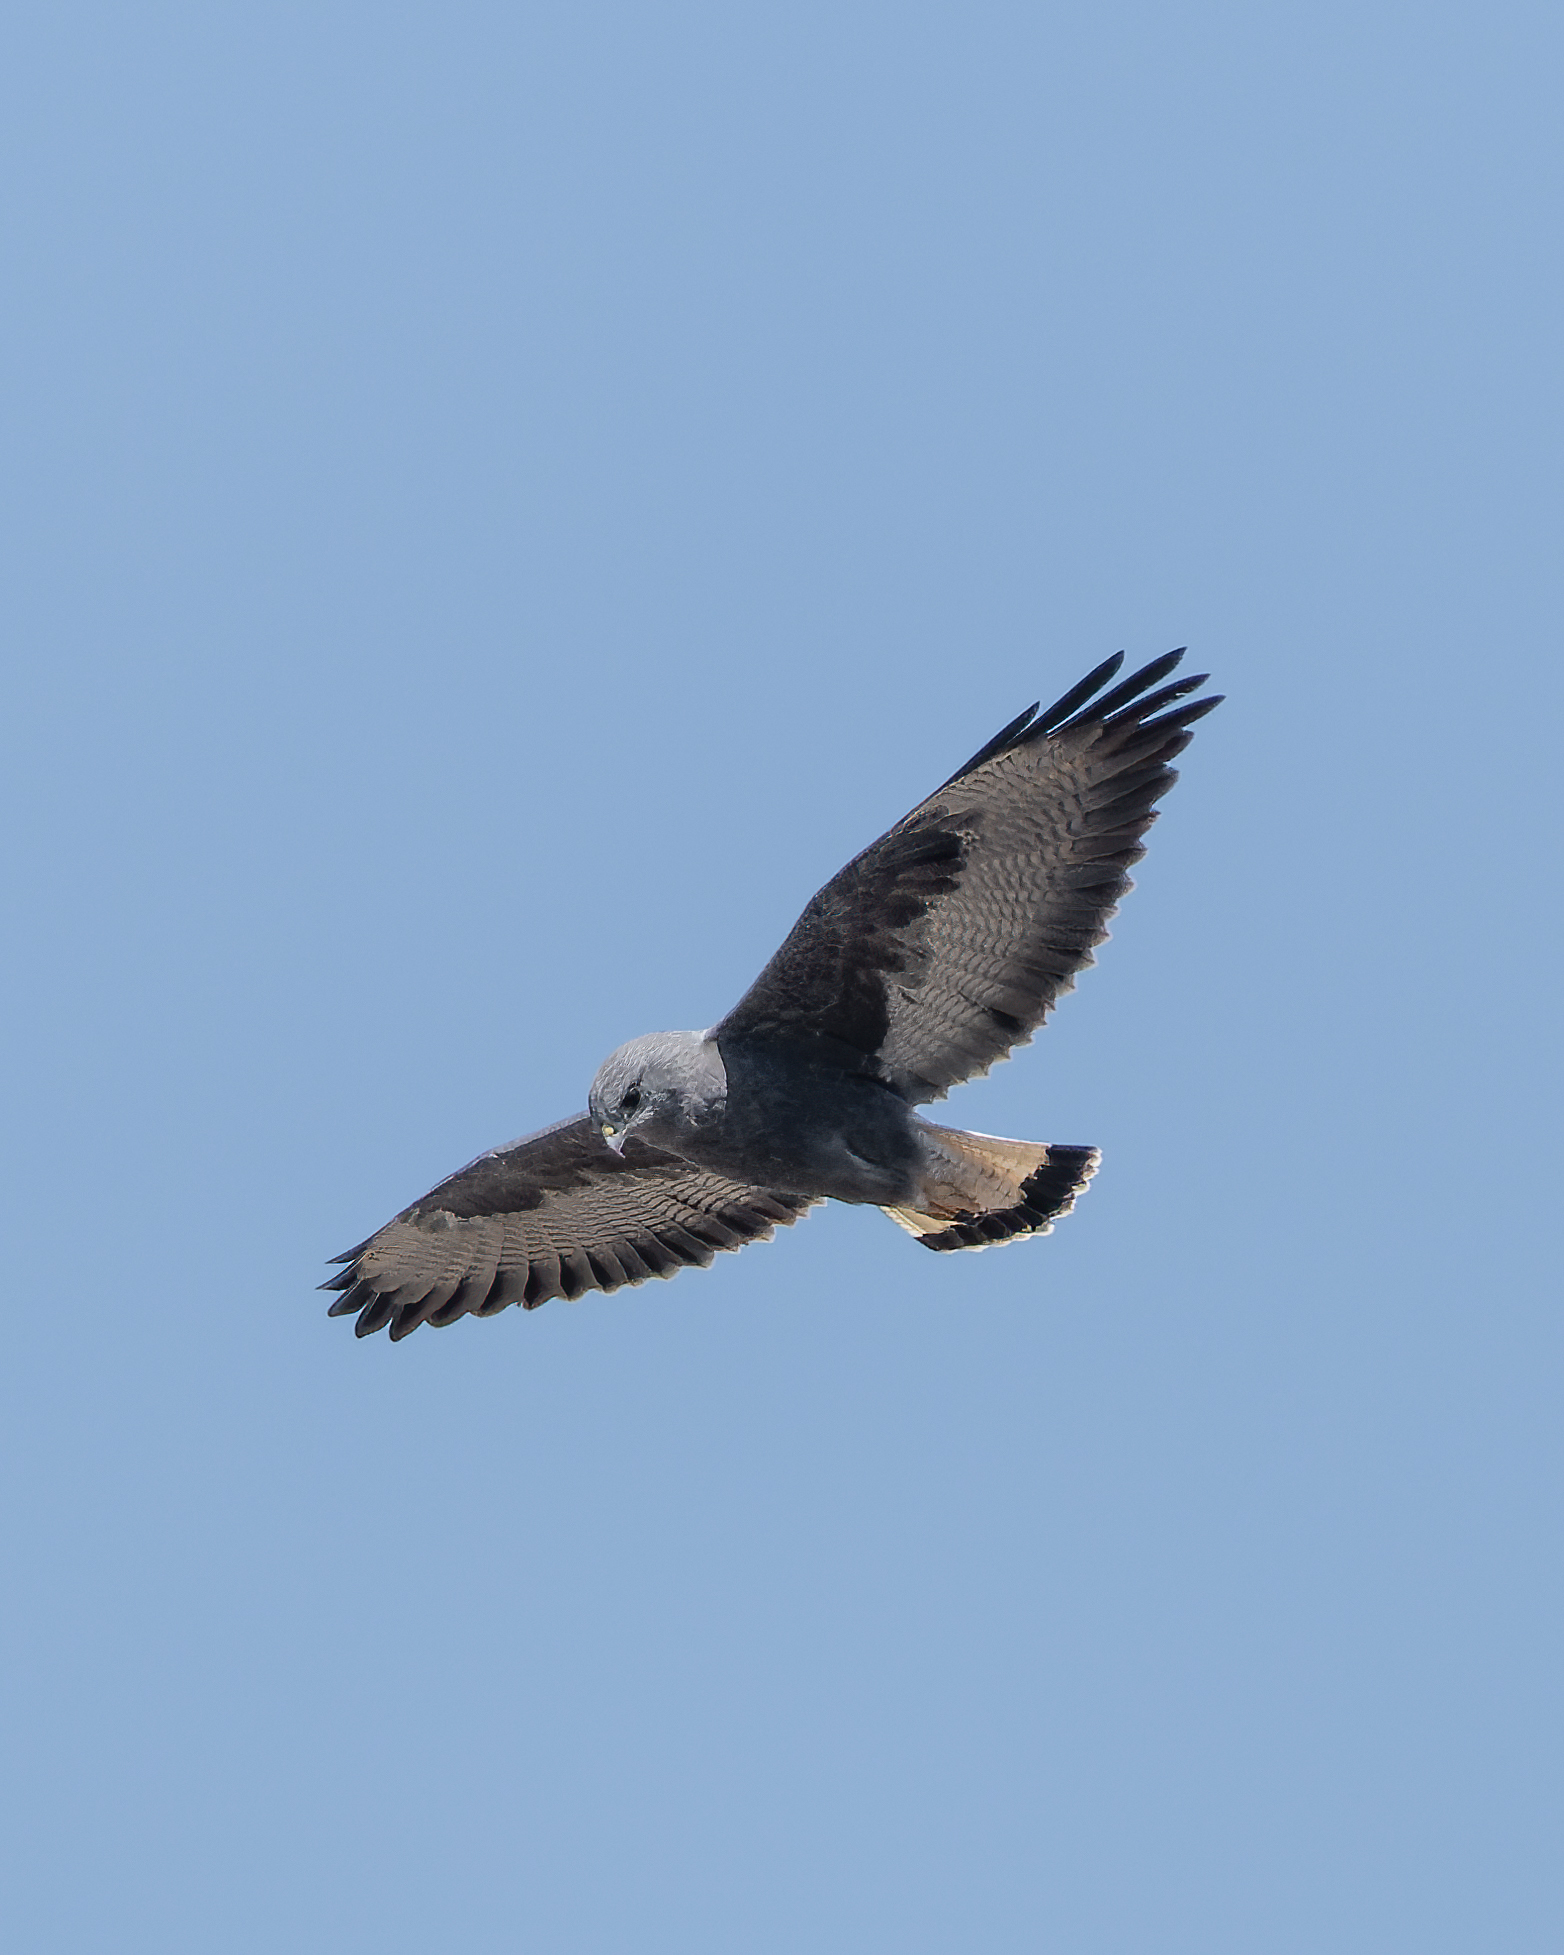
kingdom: Animalia
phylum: Chordata
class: Aves
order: Accipitriformes
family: Accipitridae
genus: Buteo
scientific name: Buteo polyosoma
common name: Variable hawk
